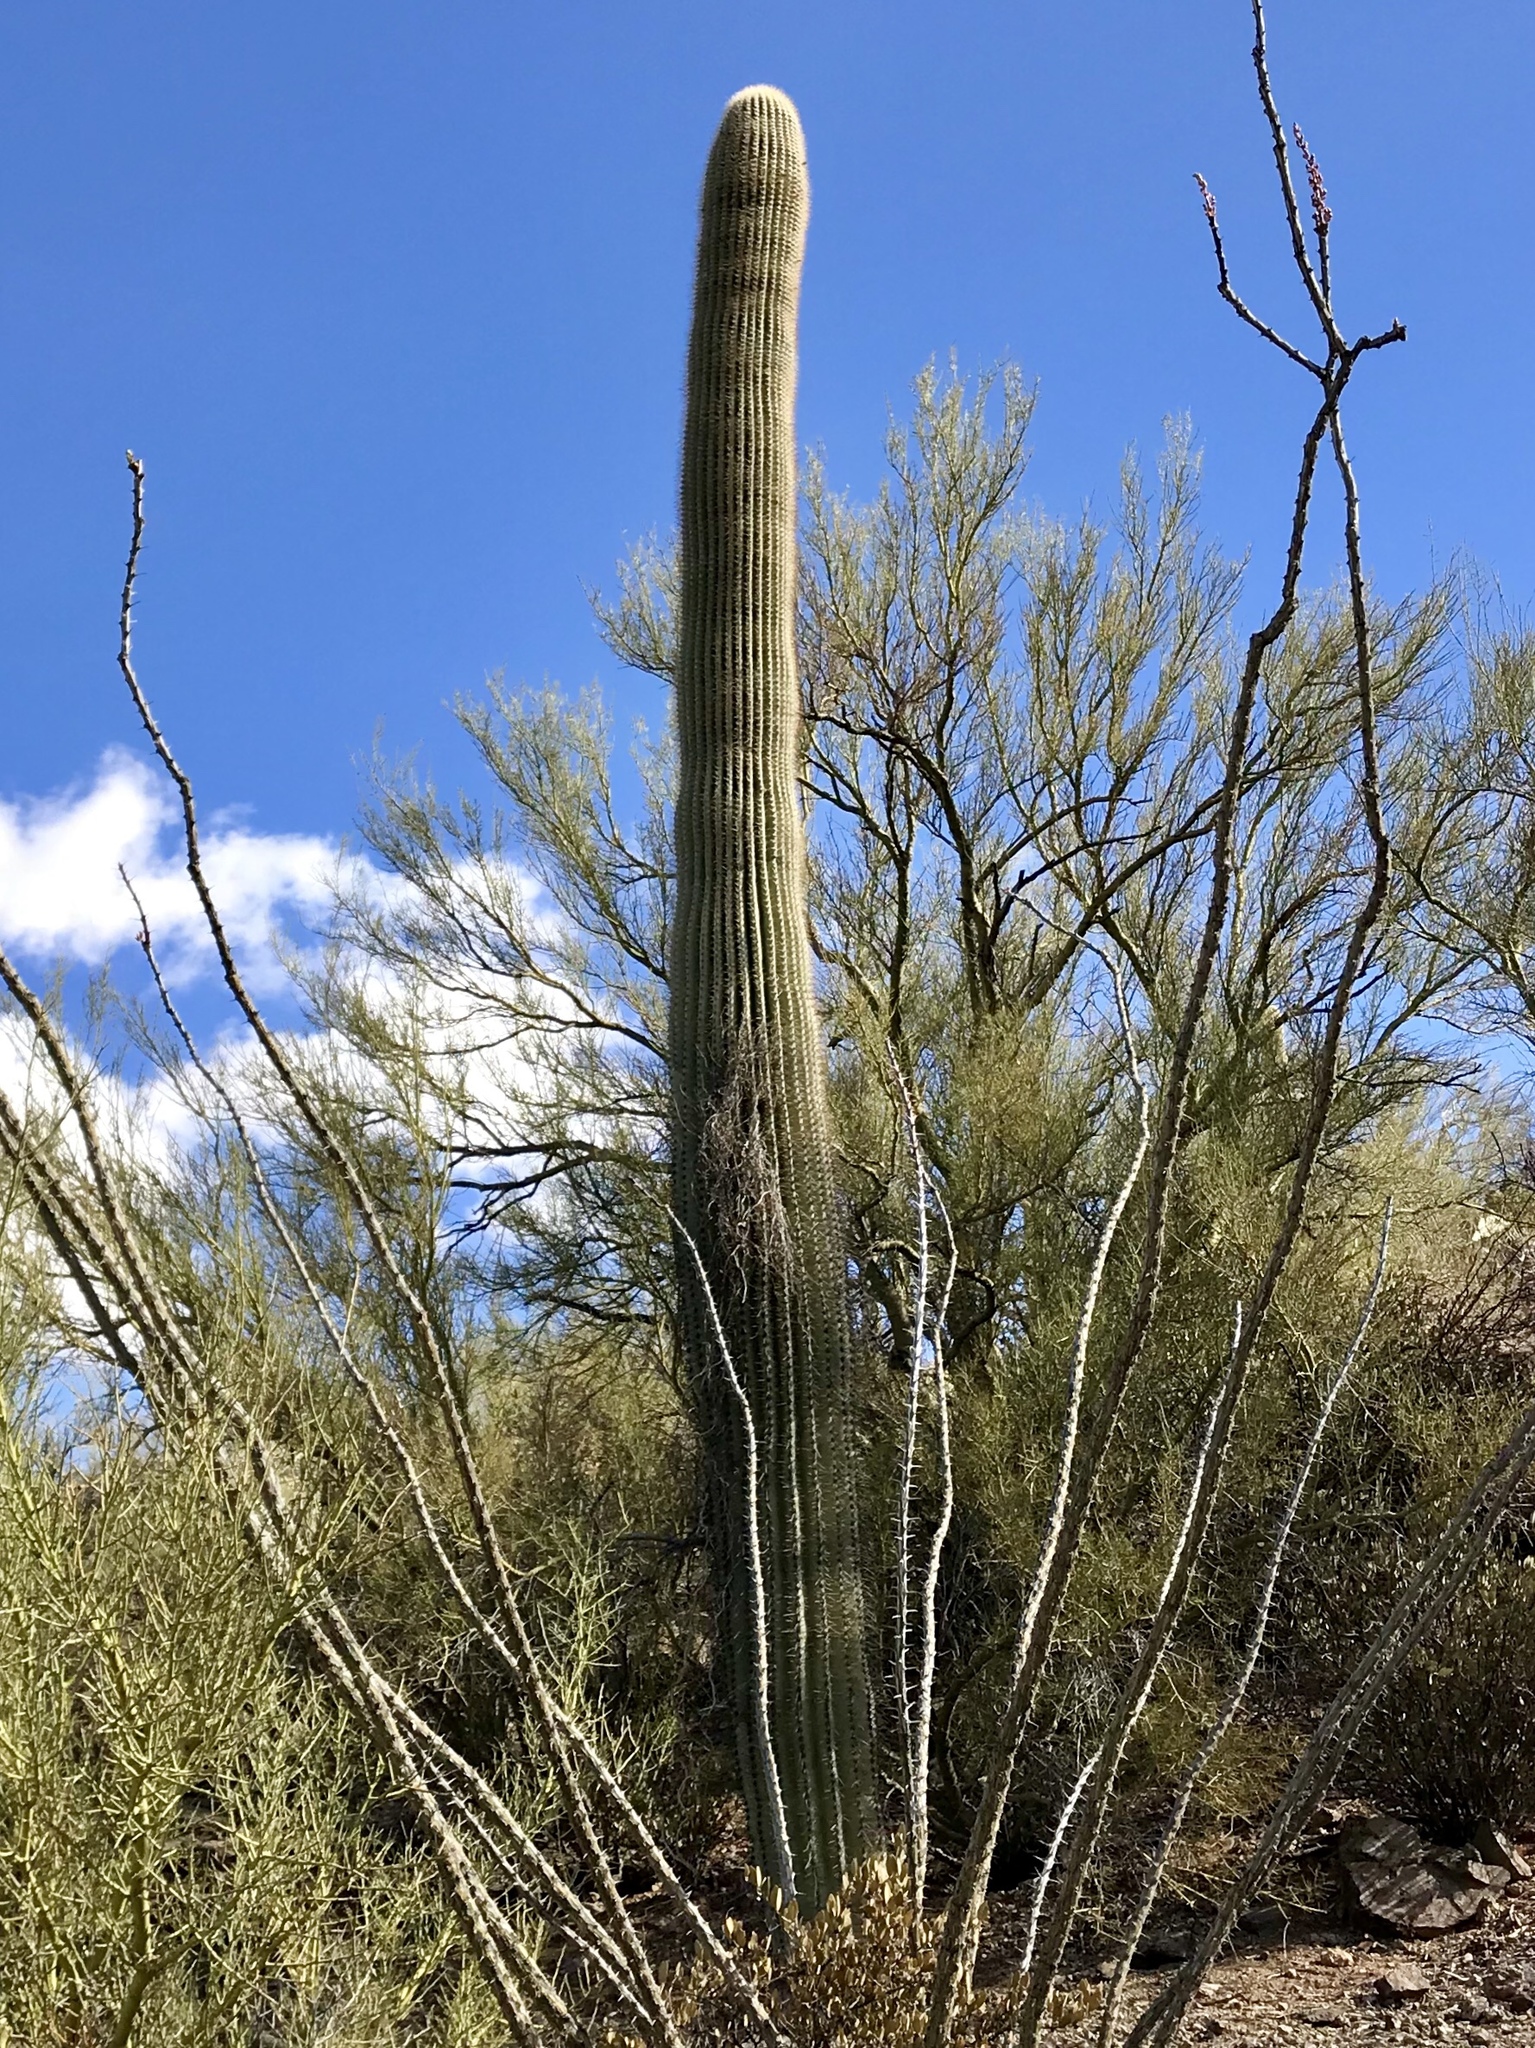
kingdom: Plantae
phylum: Tracheophyta
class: Magnoliopsida
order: Caryophyllales
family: Cactaceae
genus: Carnegiea
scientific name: Carnegiea gigantea
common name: Saguaro
